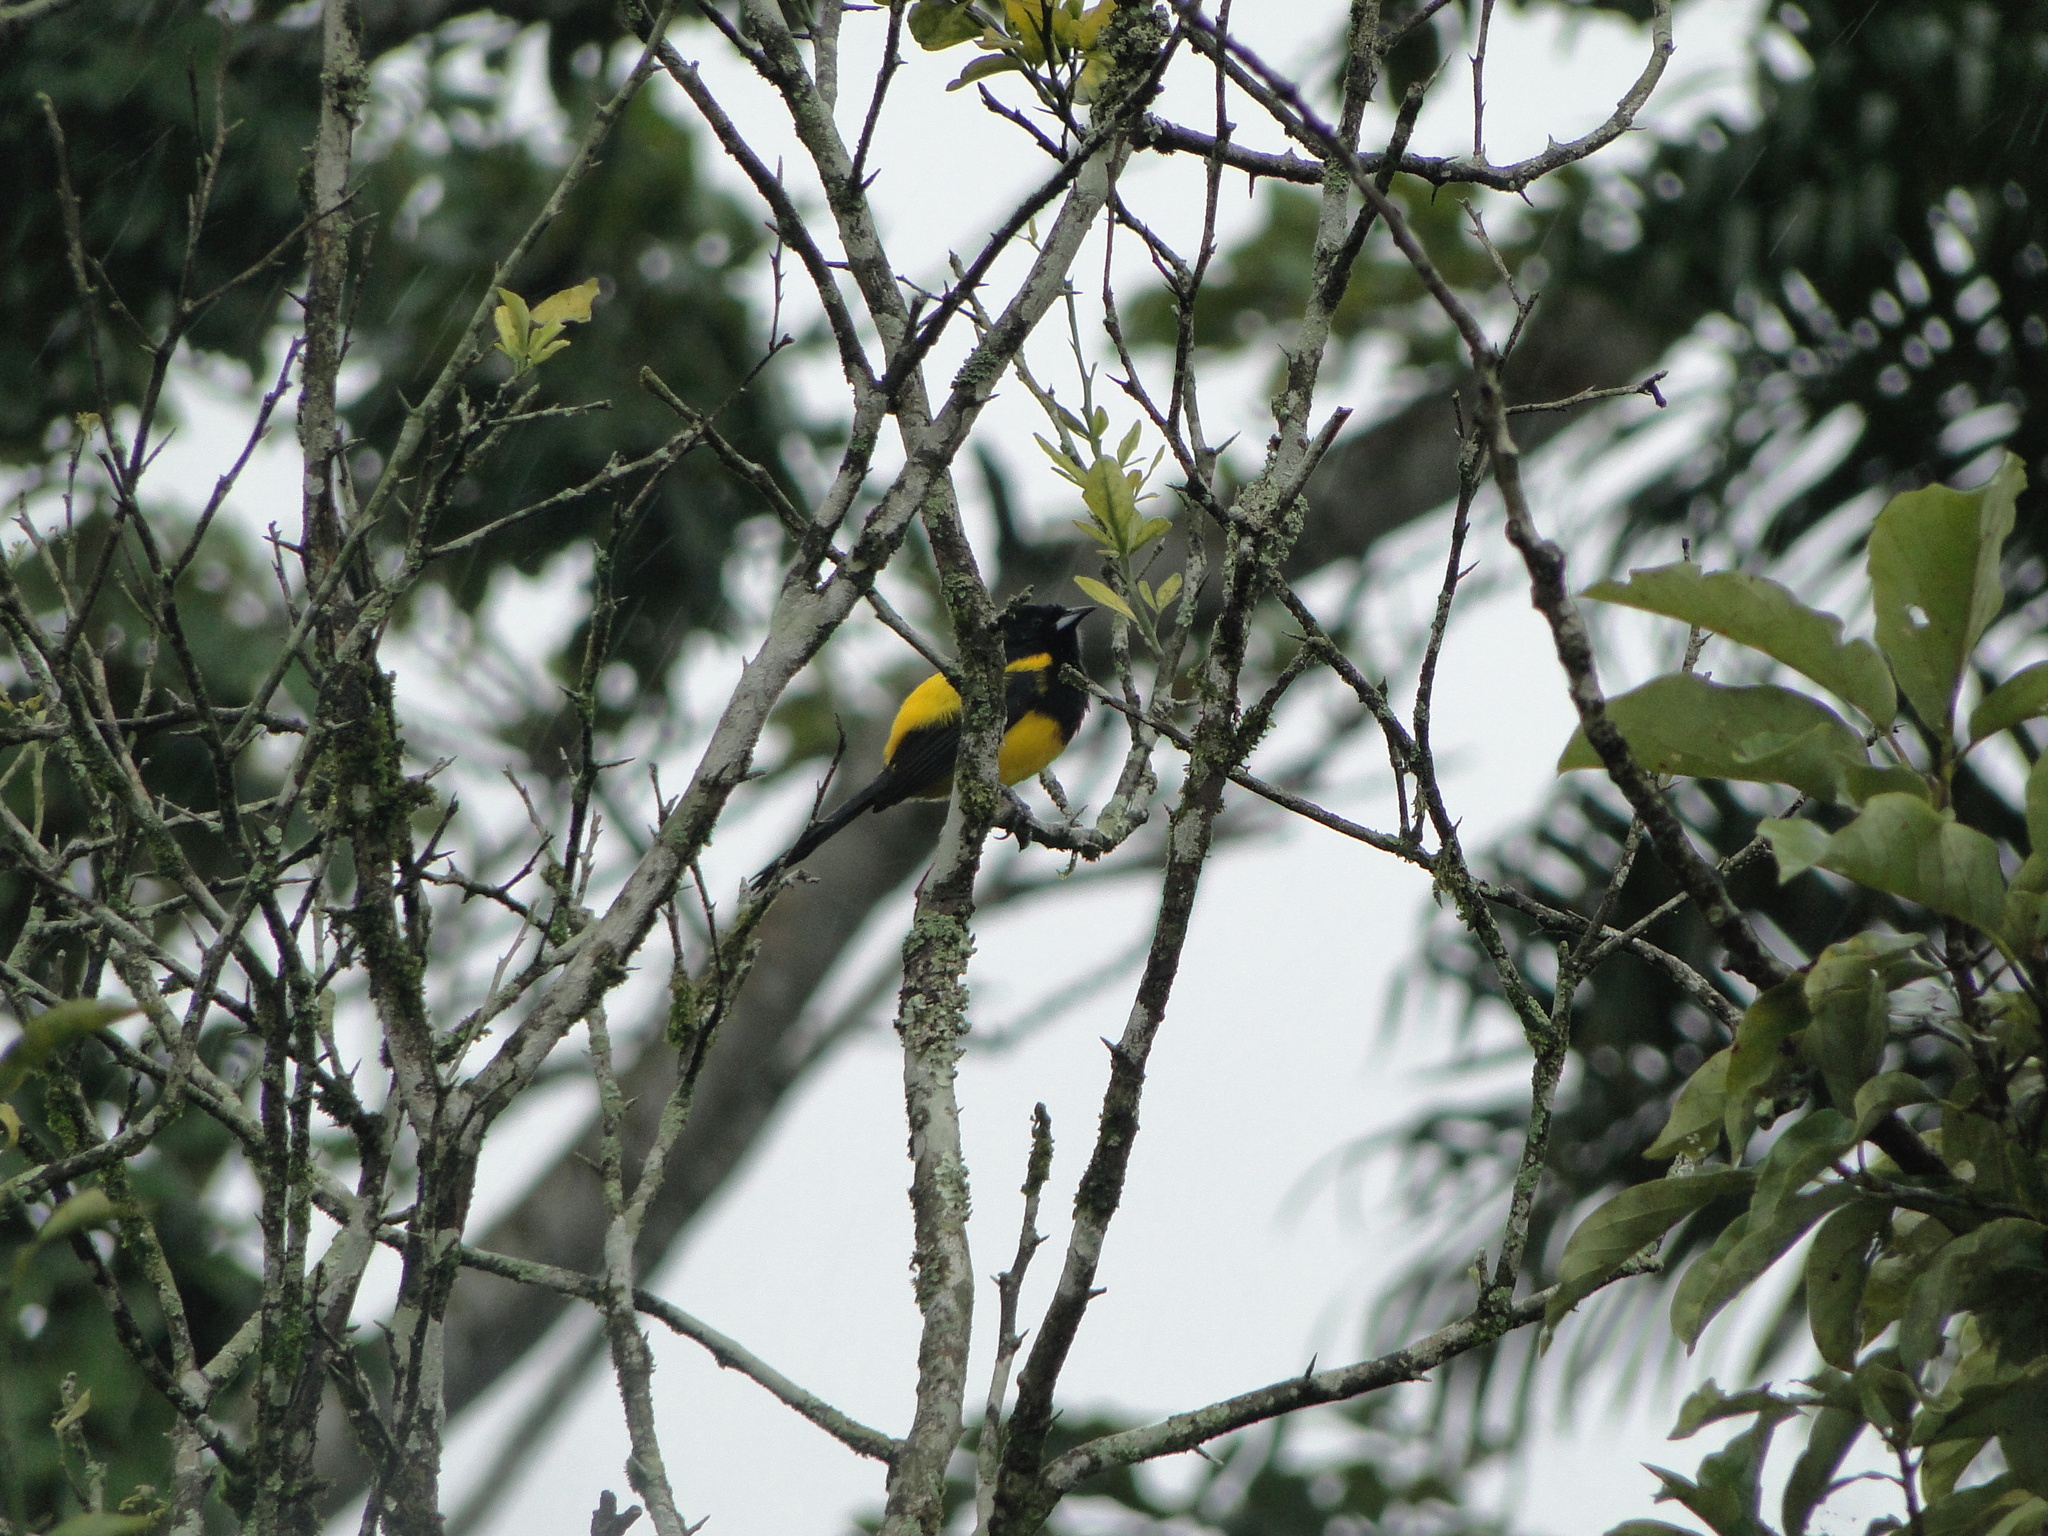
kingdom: Animalia
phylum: Chordata
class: Aves
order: Passeriformes
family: Icteridae
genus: Icterus
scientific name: Icterus prosthemelas
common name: Black-cowled oriole
